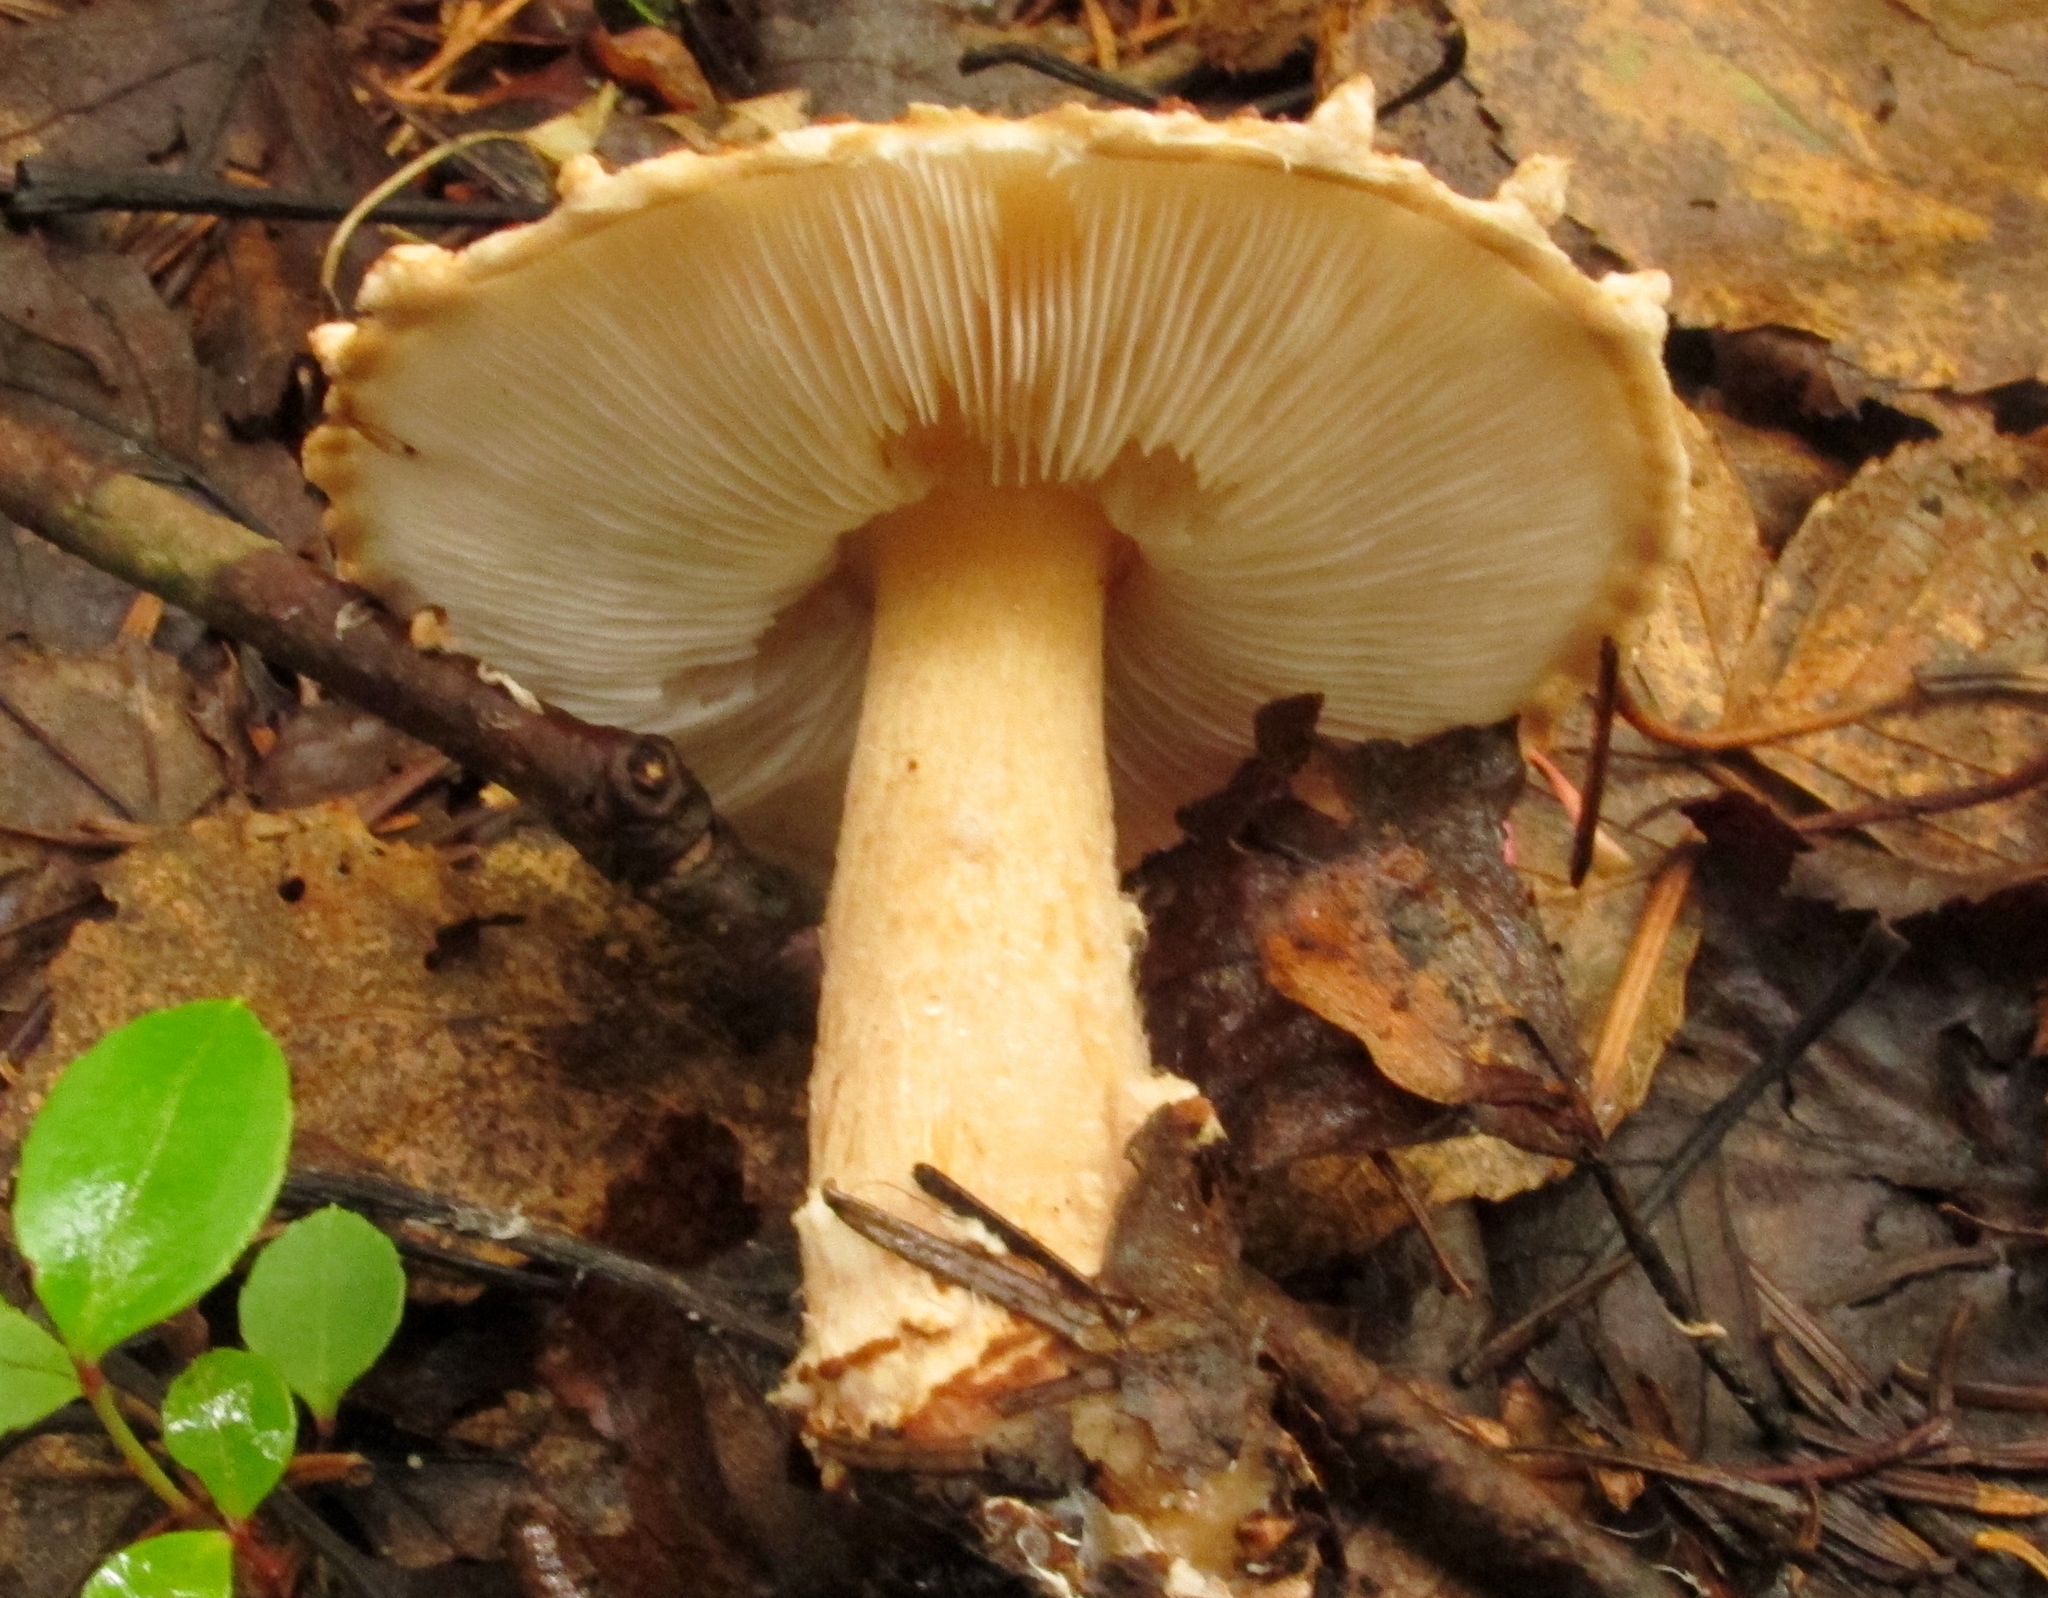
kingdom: Fungi
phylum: Basidiomycota
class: Agaricomycetes
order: Agaricales
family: Agaricaceae
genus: Lepiota
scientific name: Lepiota cortinarius
